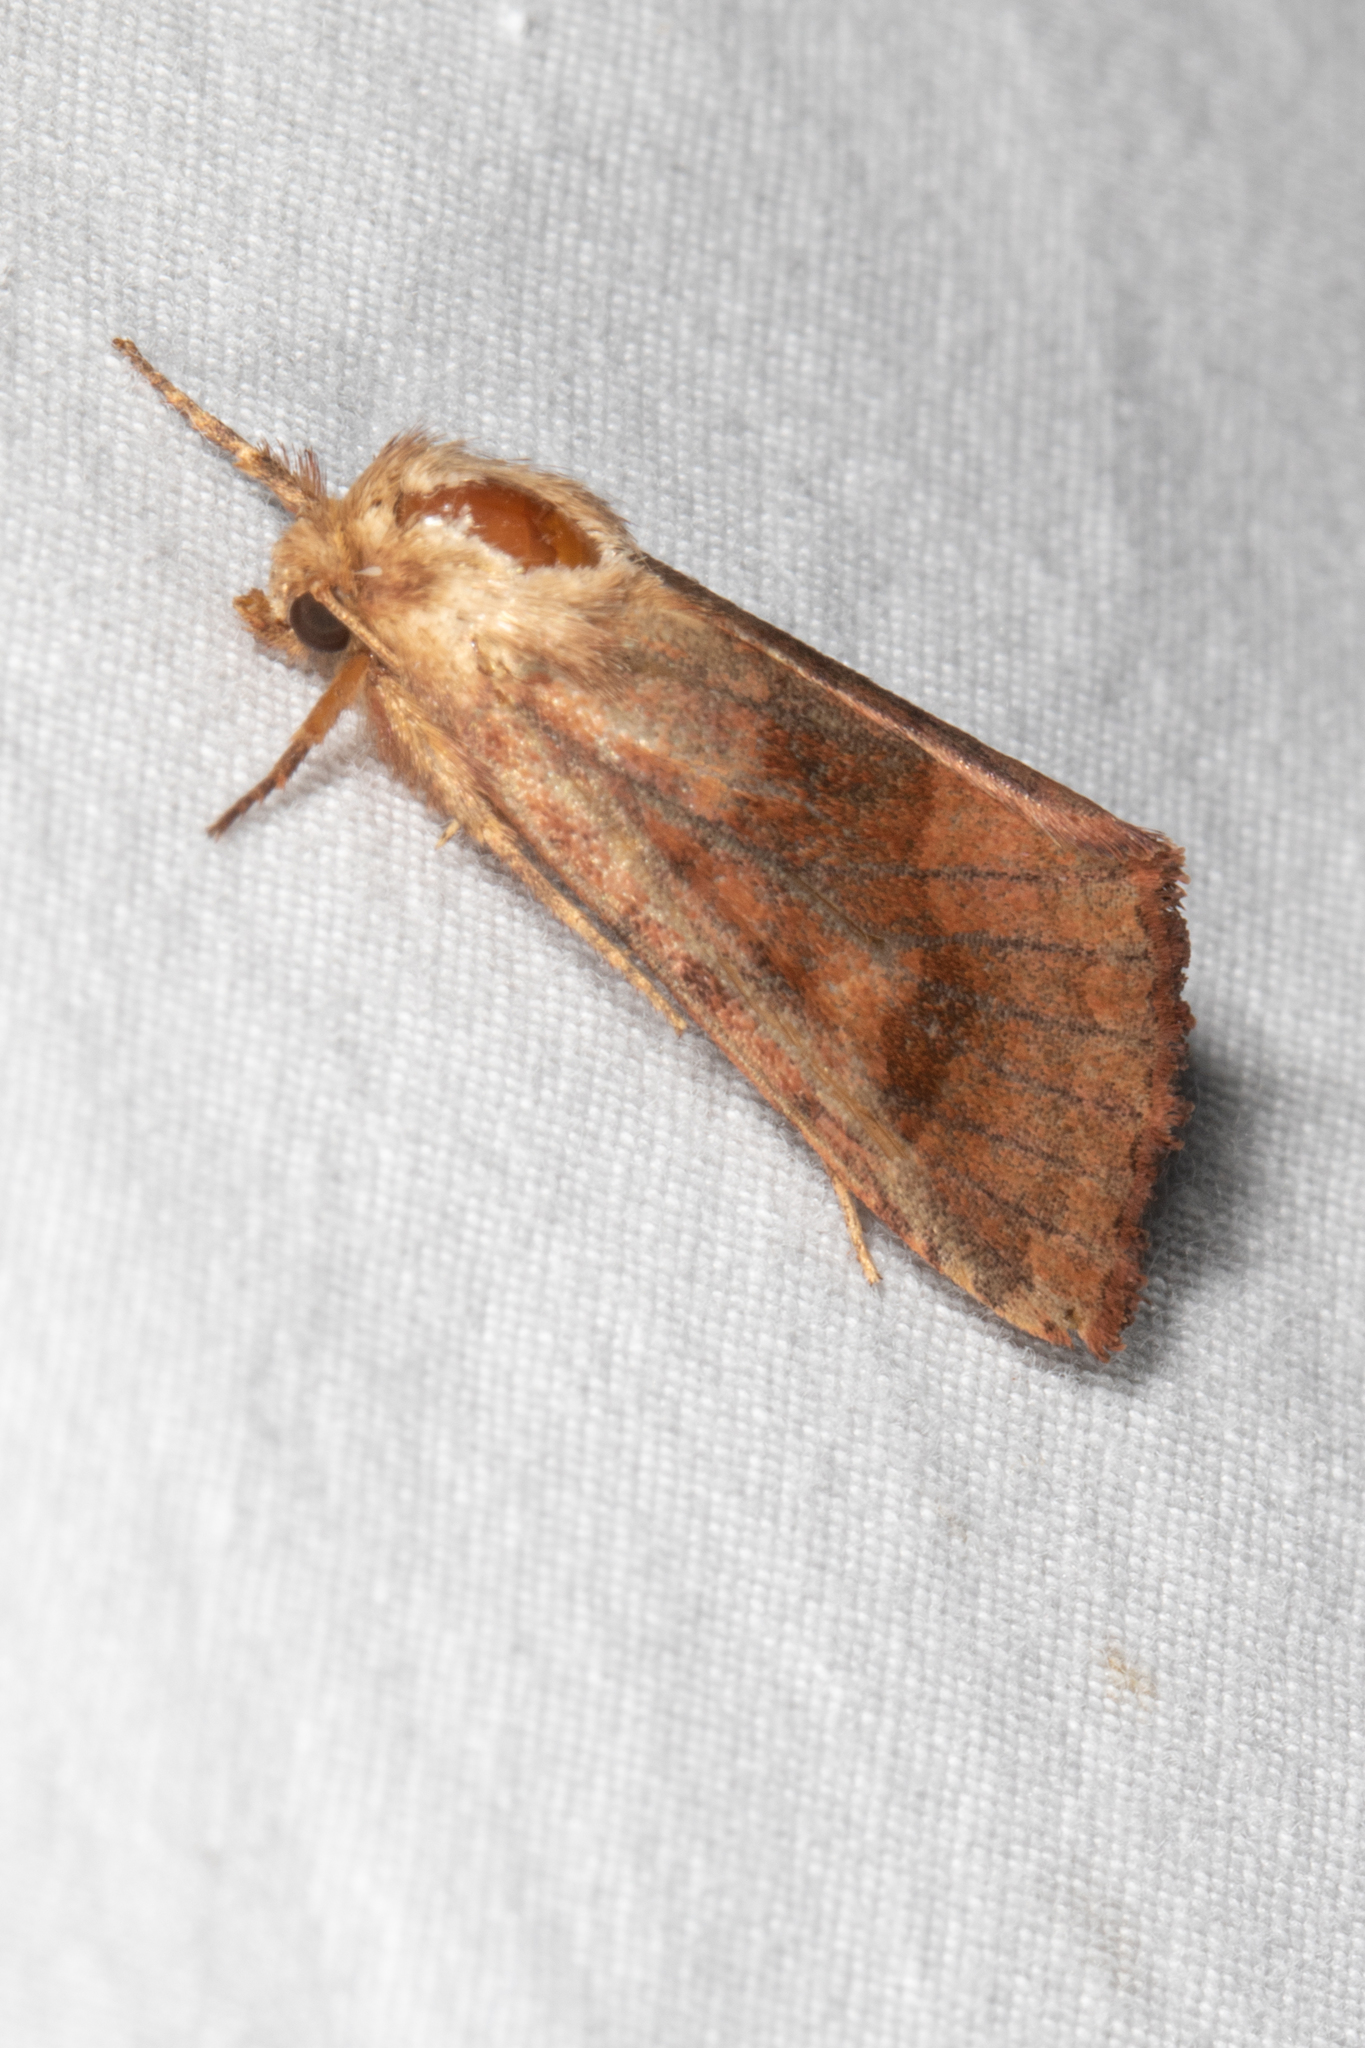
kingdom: Animalia
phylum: Arthropoda
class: Insecta
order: Lepidoptera
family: Noctuidae
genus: Nephelodes
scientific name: Nephelodes minians
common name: Bronzed cutworm
